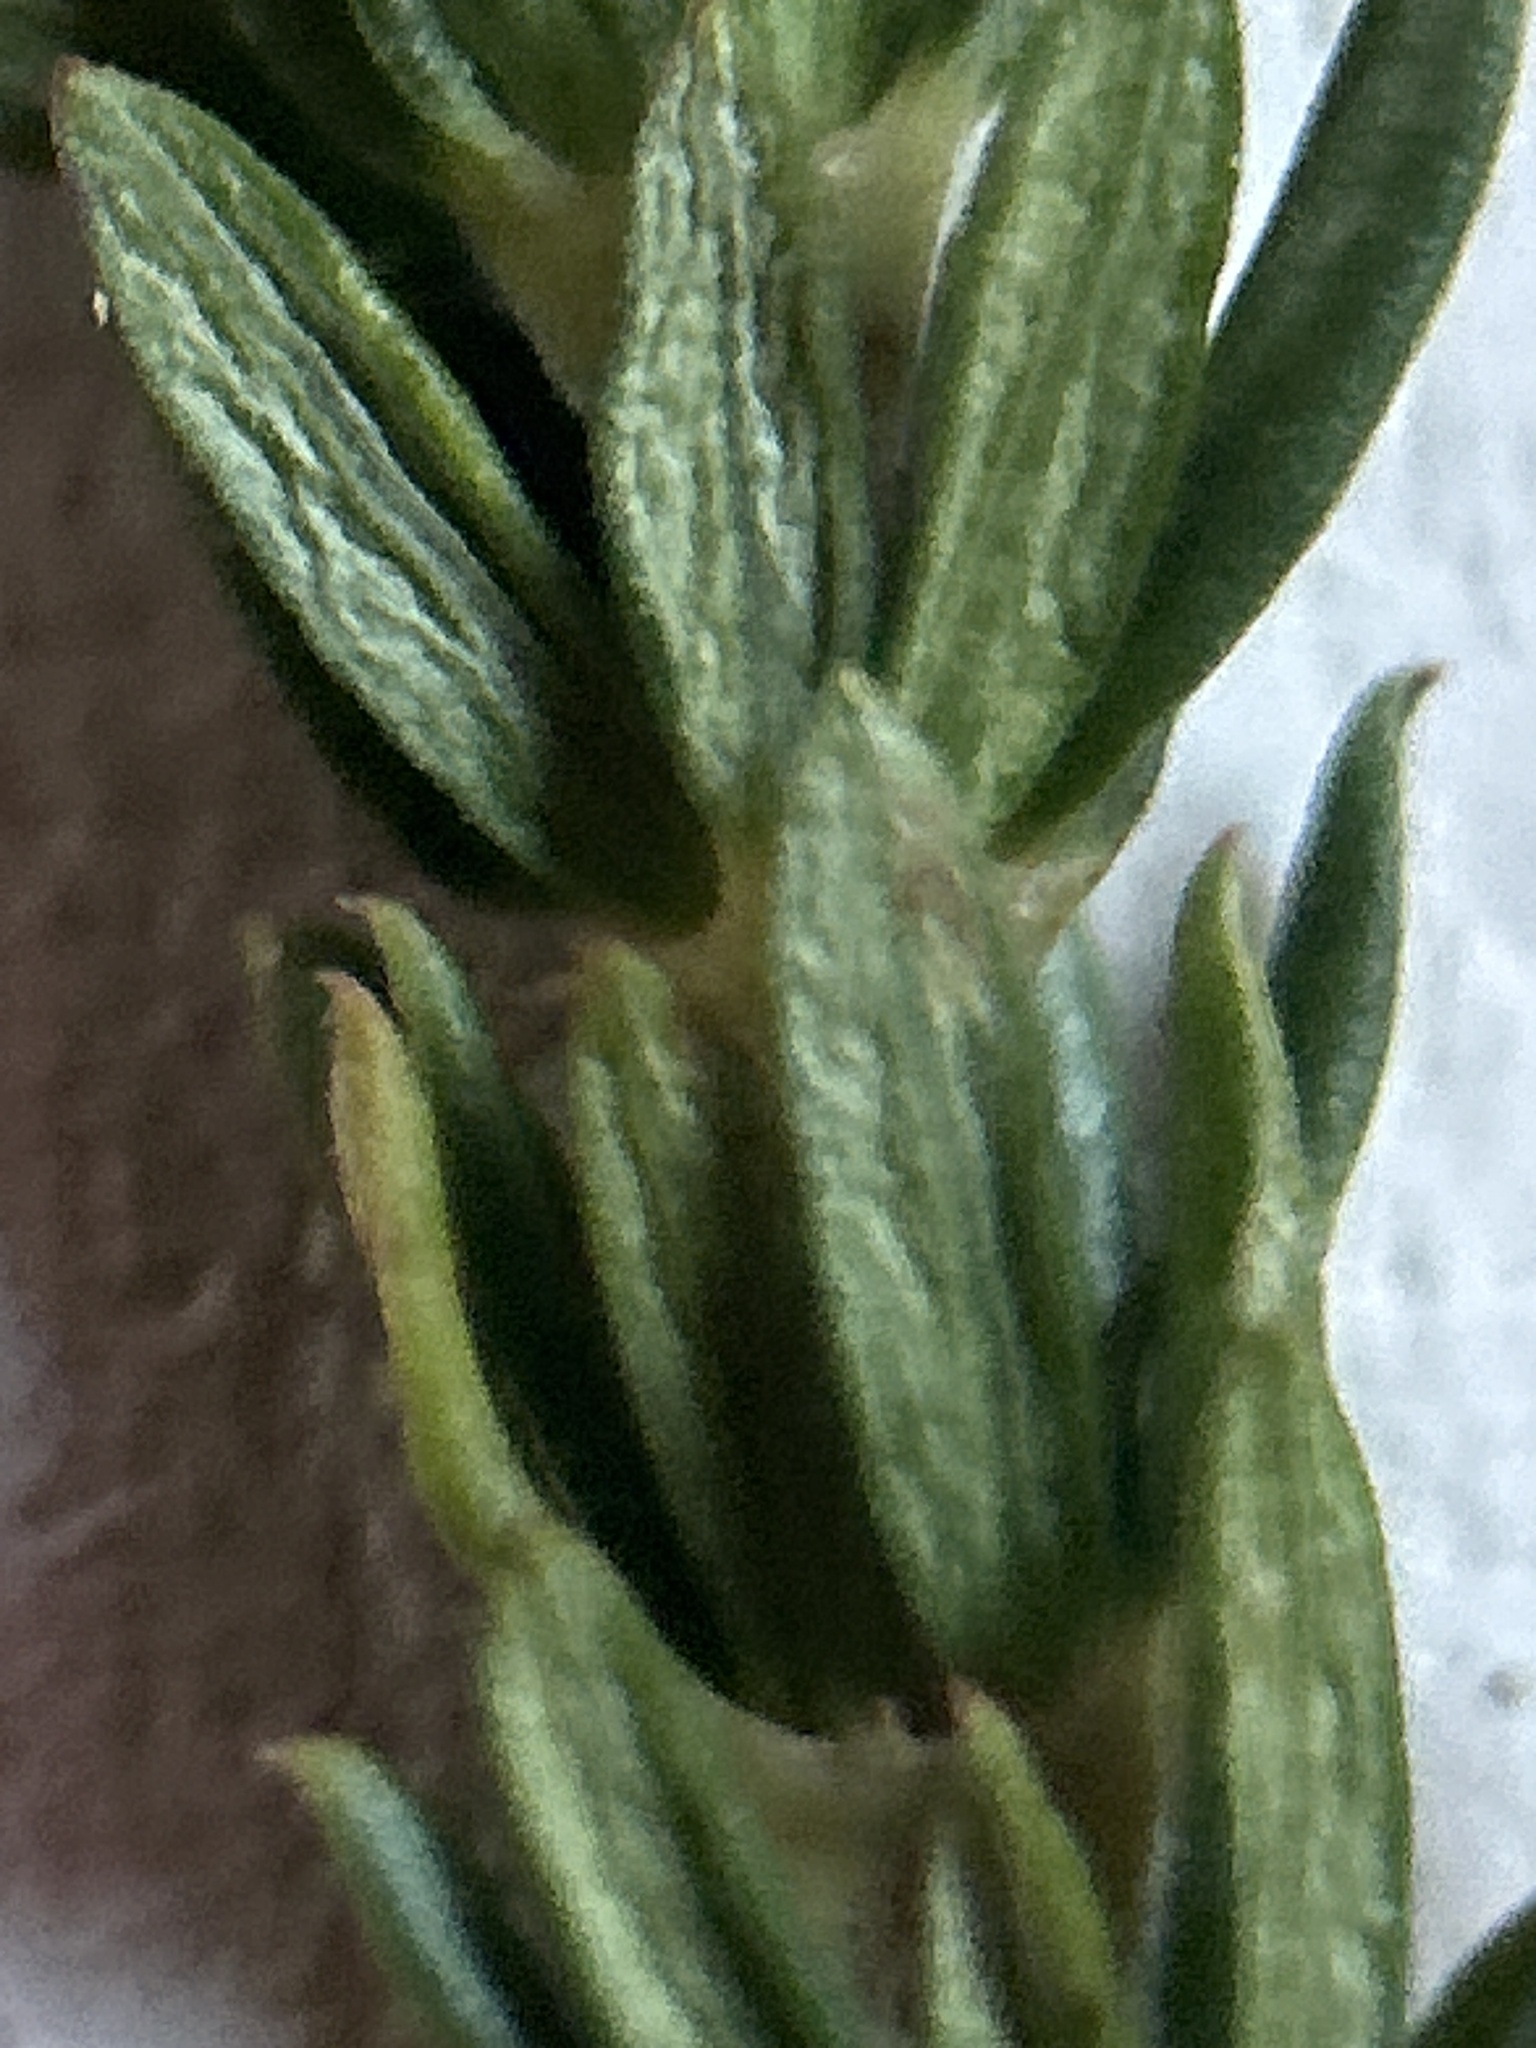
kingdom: Plantae
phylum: Tracheophyta
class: Magnoliopsida
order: Gentianales
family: Rubiaceae
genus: Anthospermum
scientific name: Anthospermum aethiopicum
